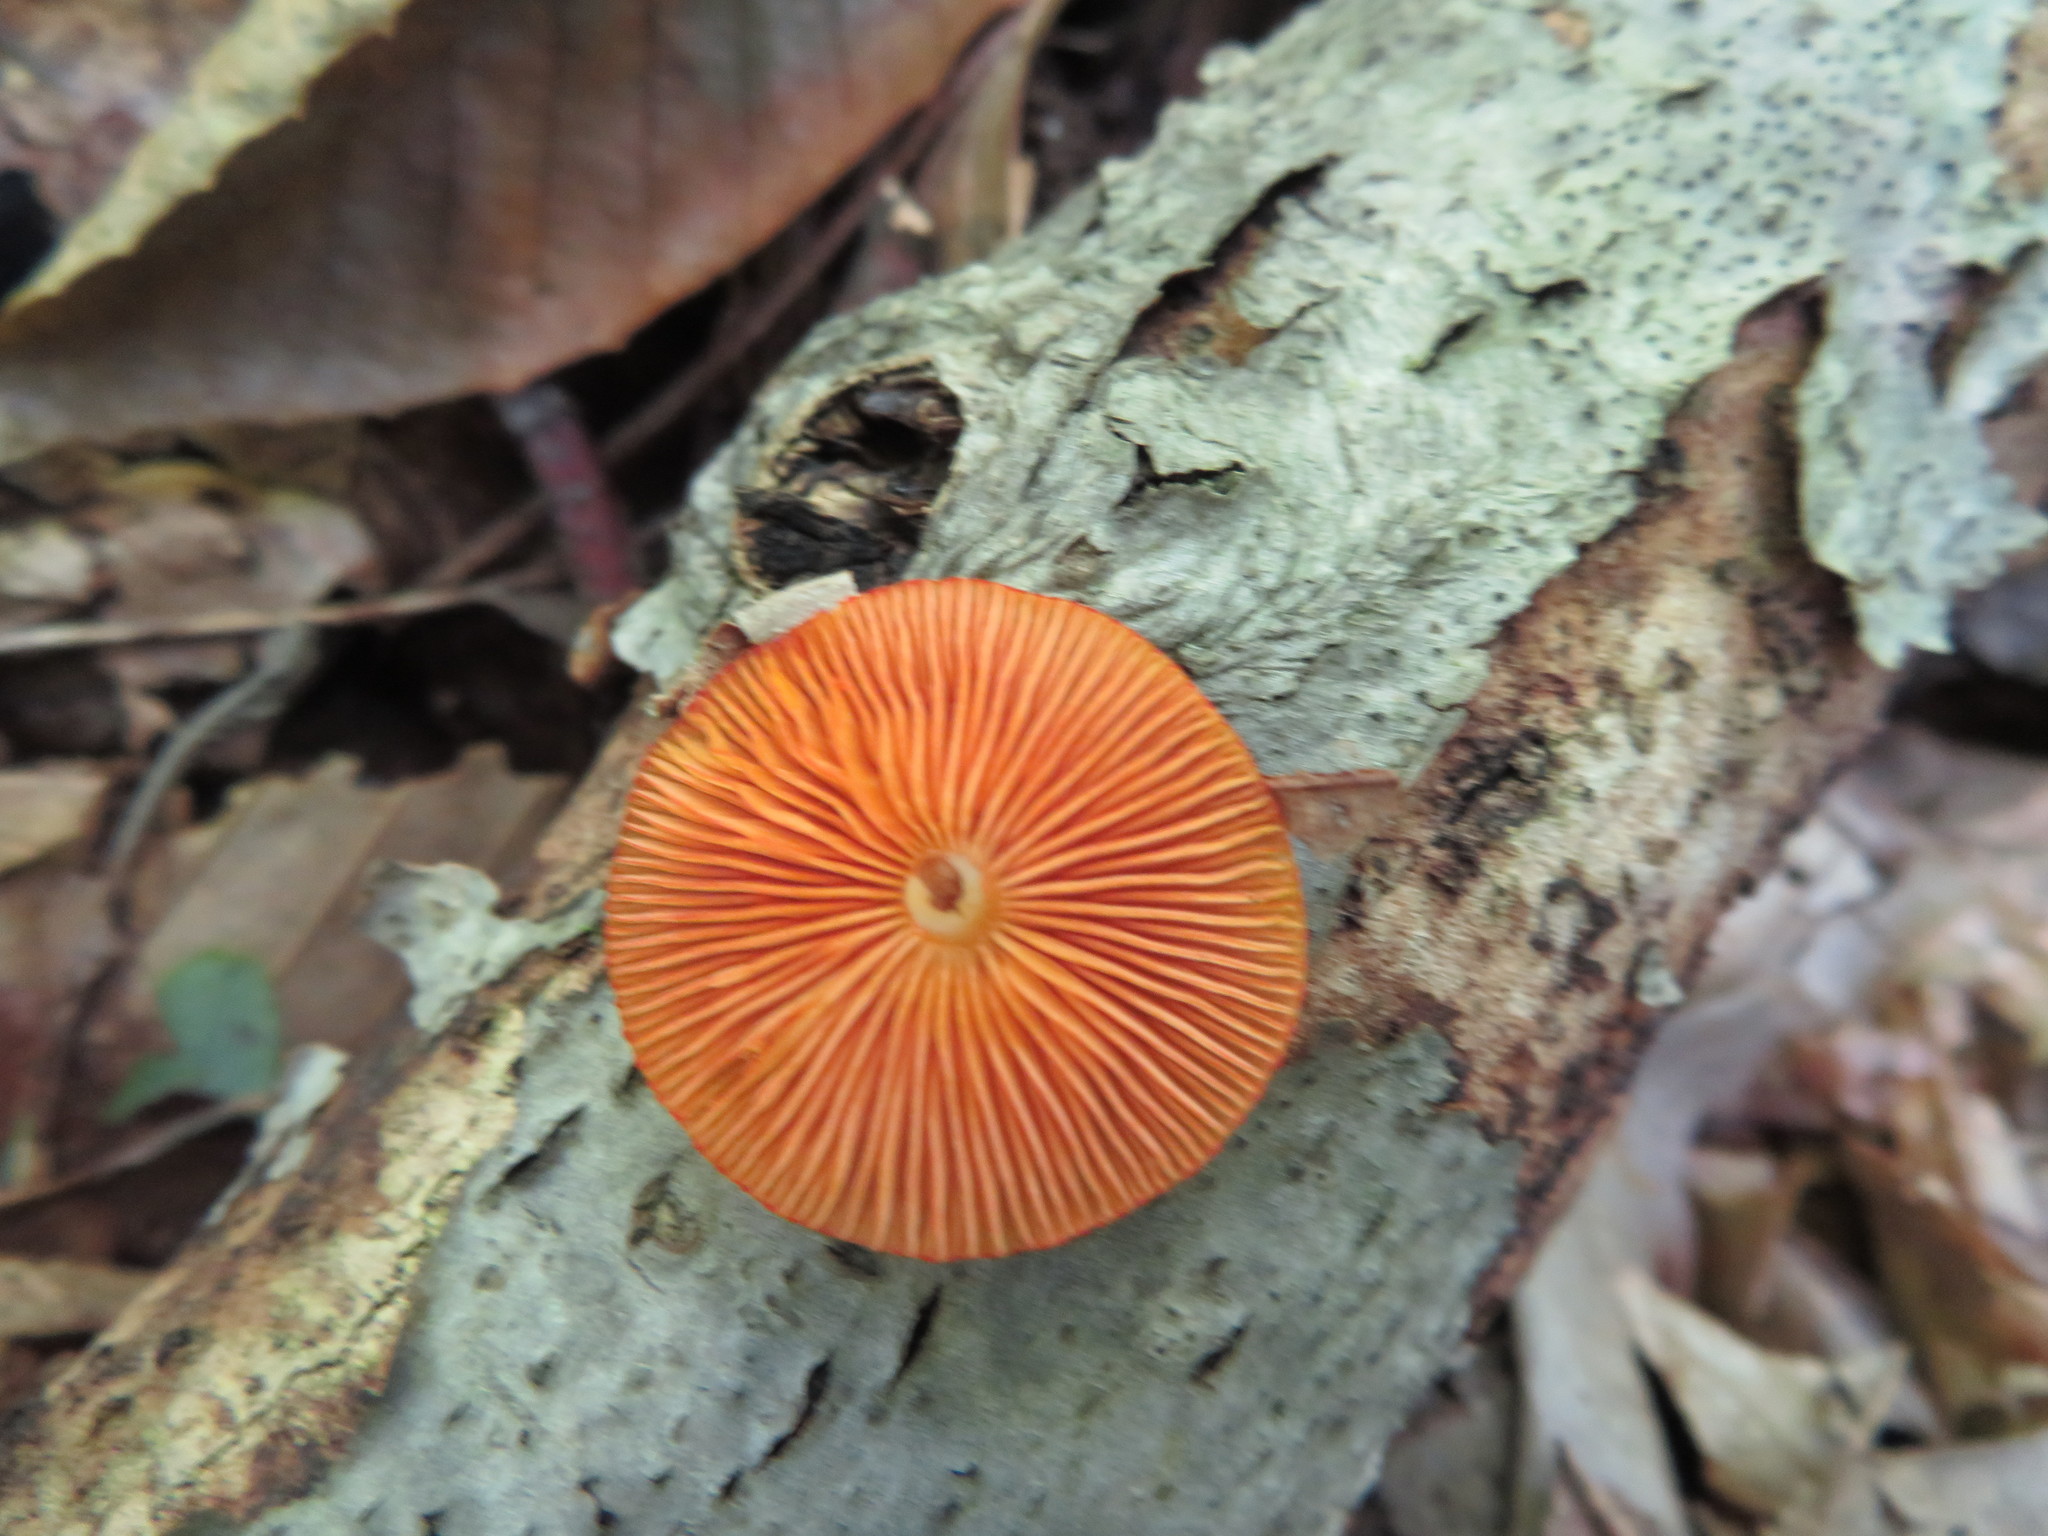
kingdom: Fungi
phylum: Basidiomycota
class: Agaricomycetes
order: Agaricales
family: Mycenaceae
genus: Mycena
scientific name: Mycena leaiana
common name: Orange mycena
